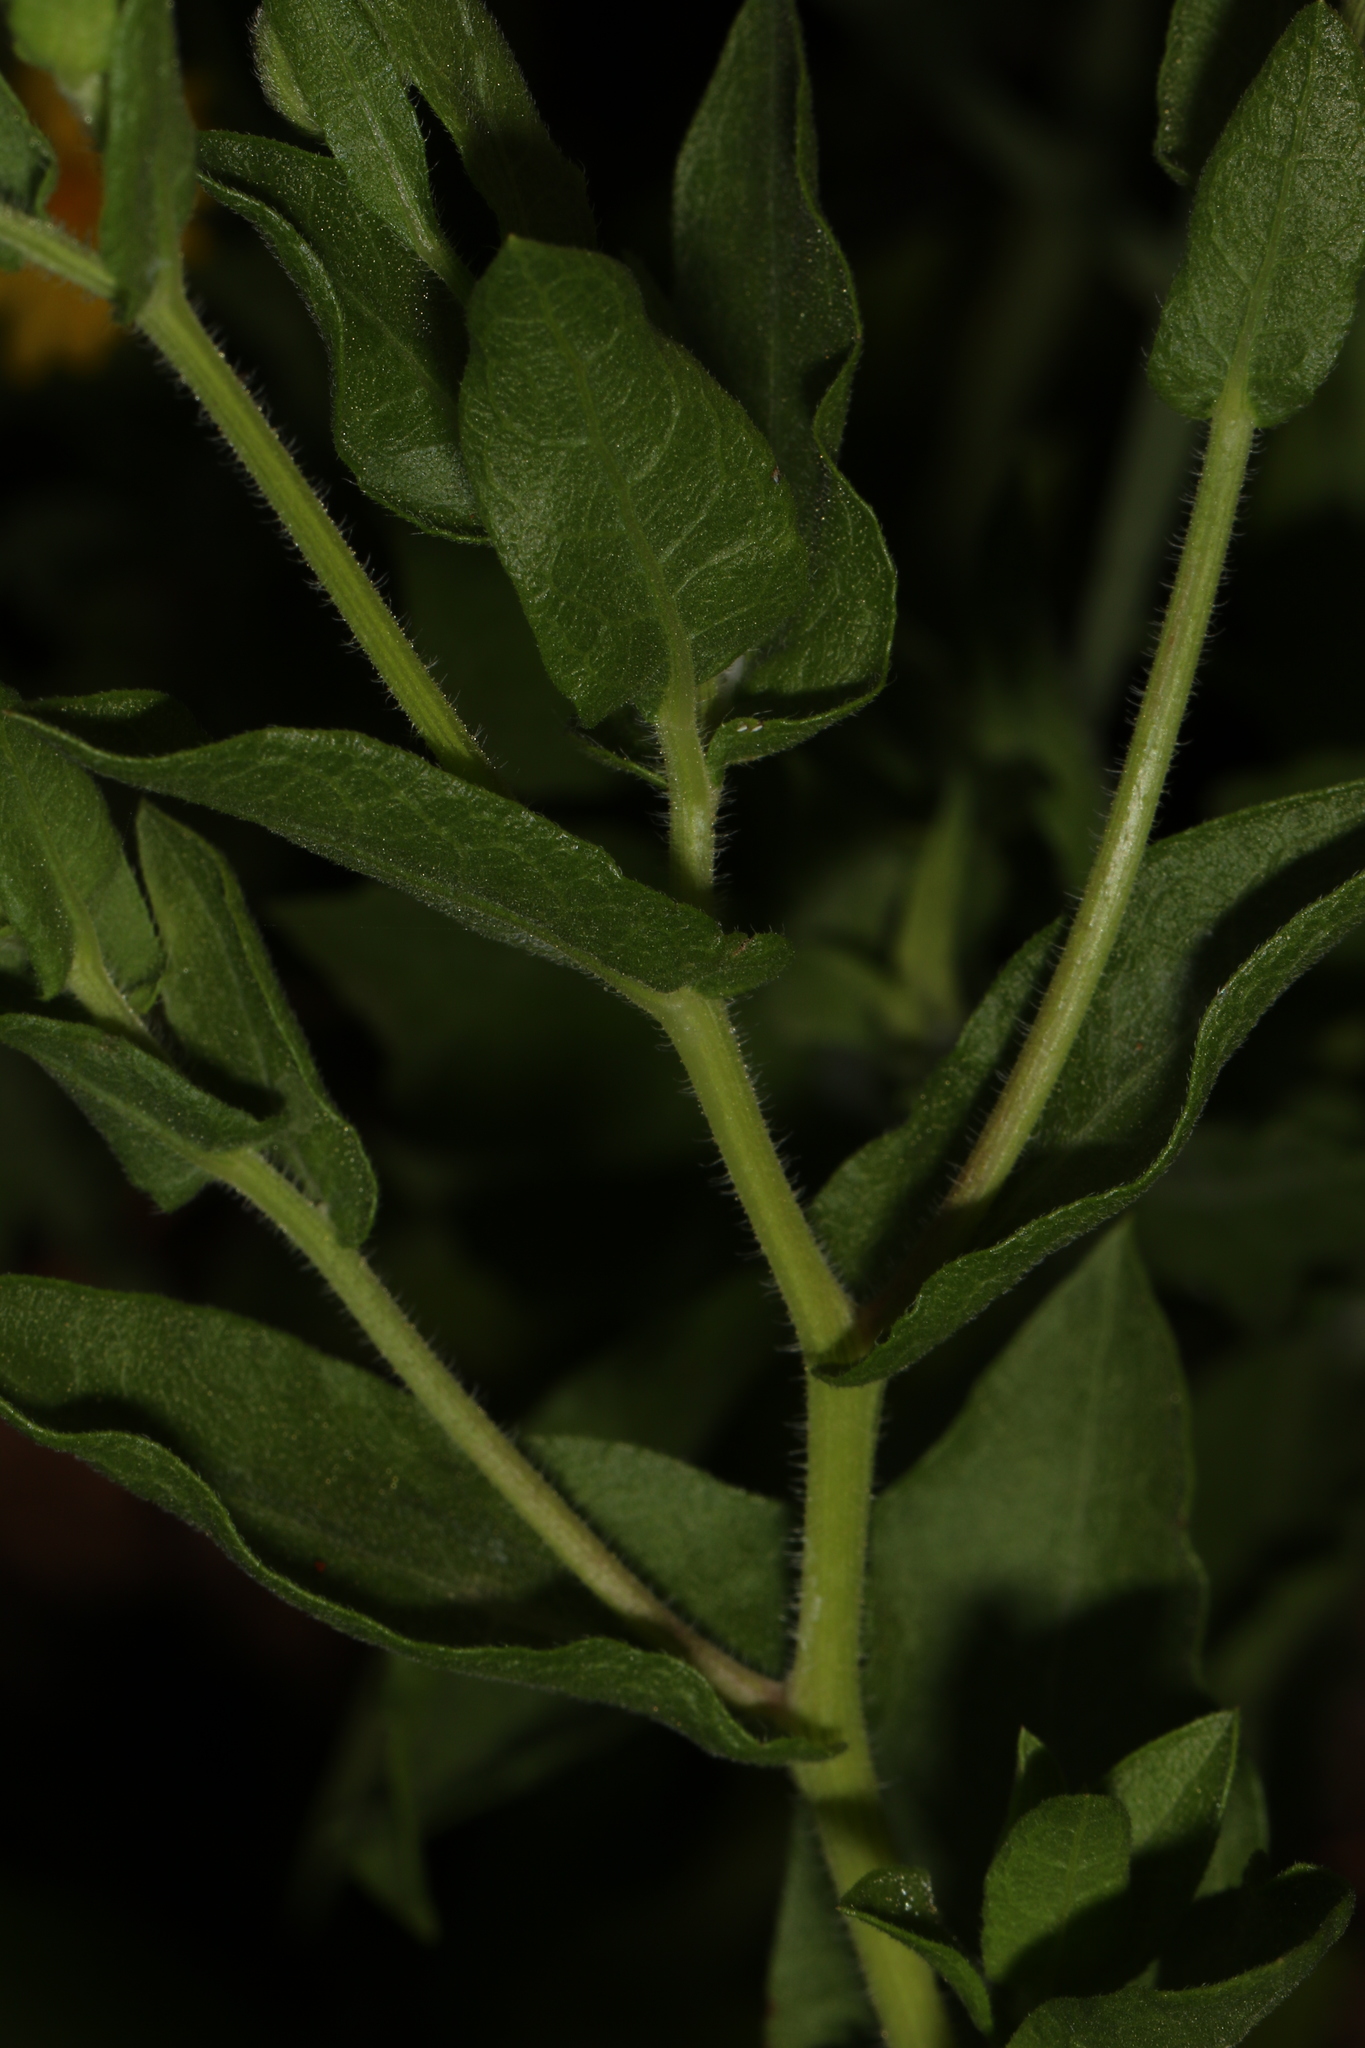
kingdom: Plantae
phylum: Tracheophyta
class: Magnoliopsida
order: Asterales
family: Asteraceae
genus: Heterotheca
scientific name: Heterotheca subaxillaris
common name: Camphorweed
